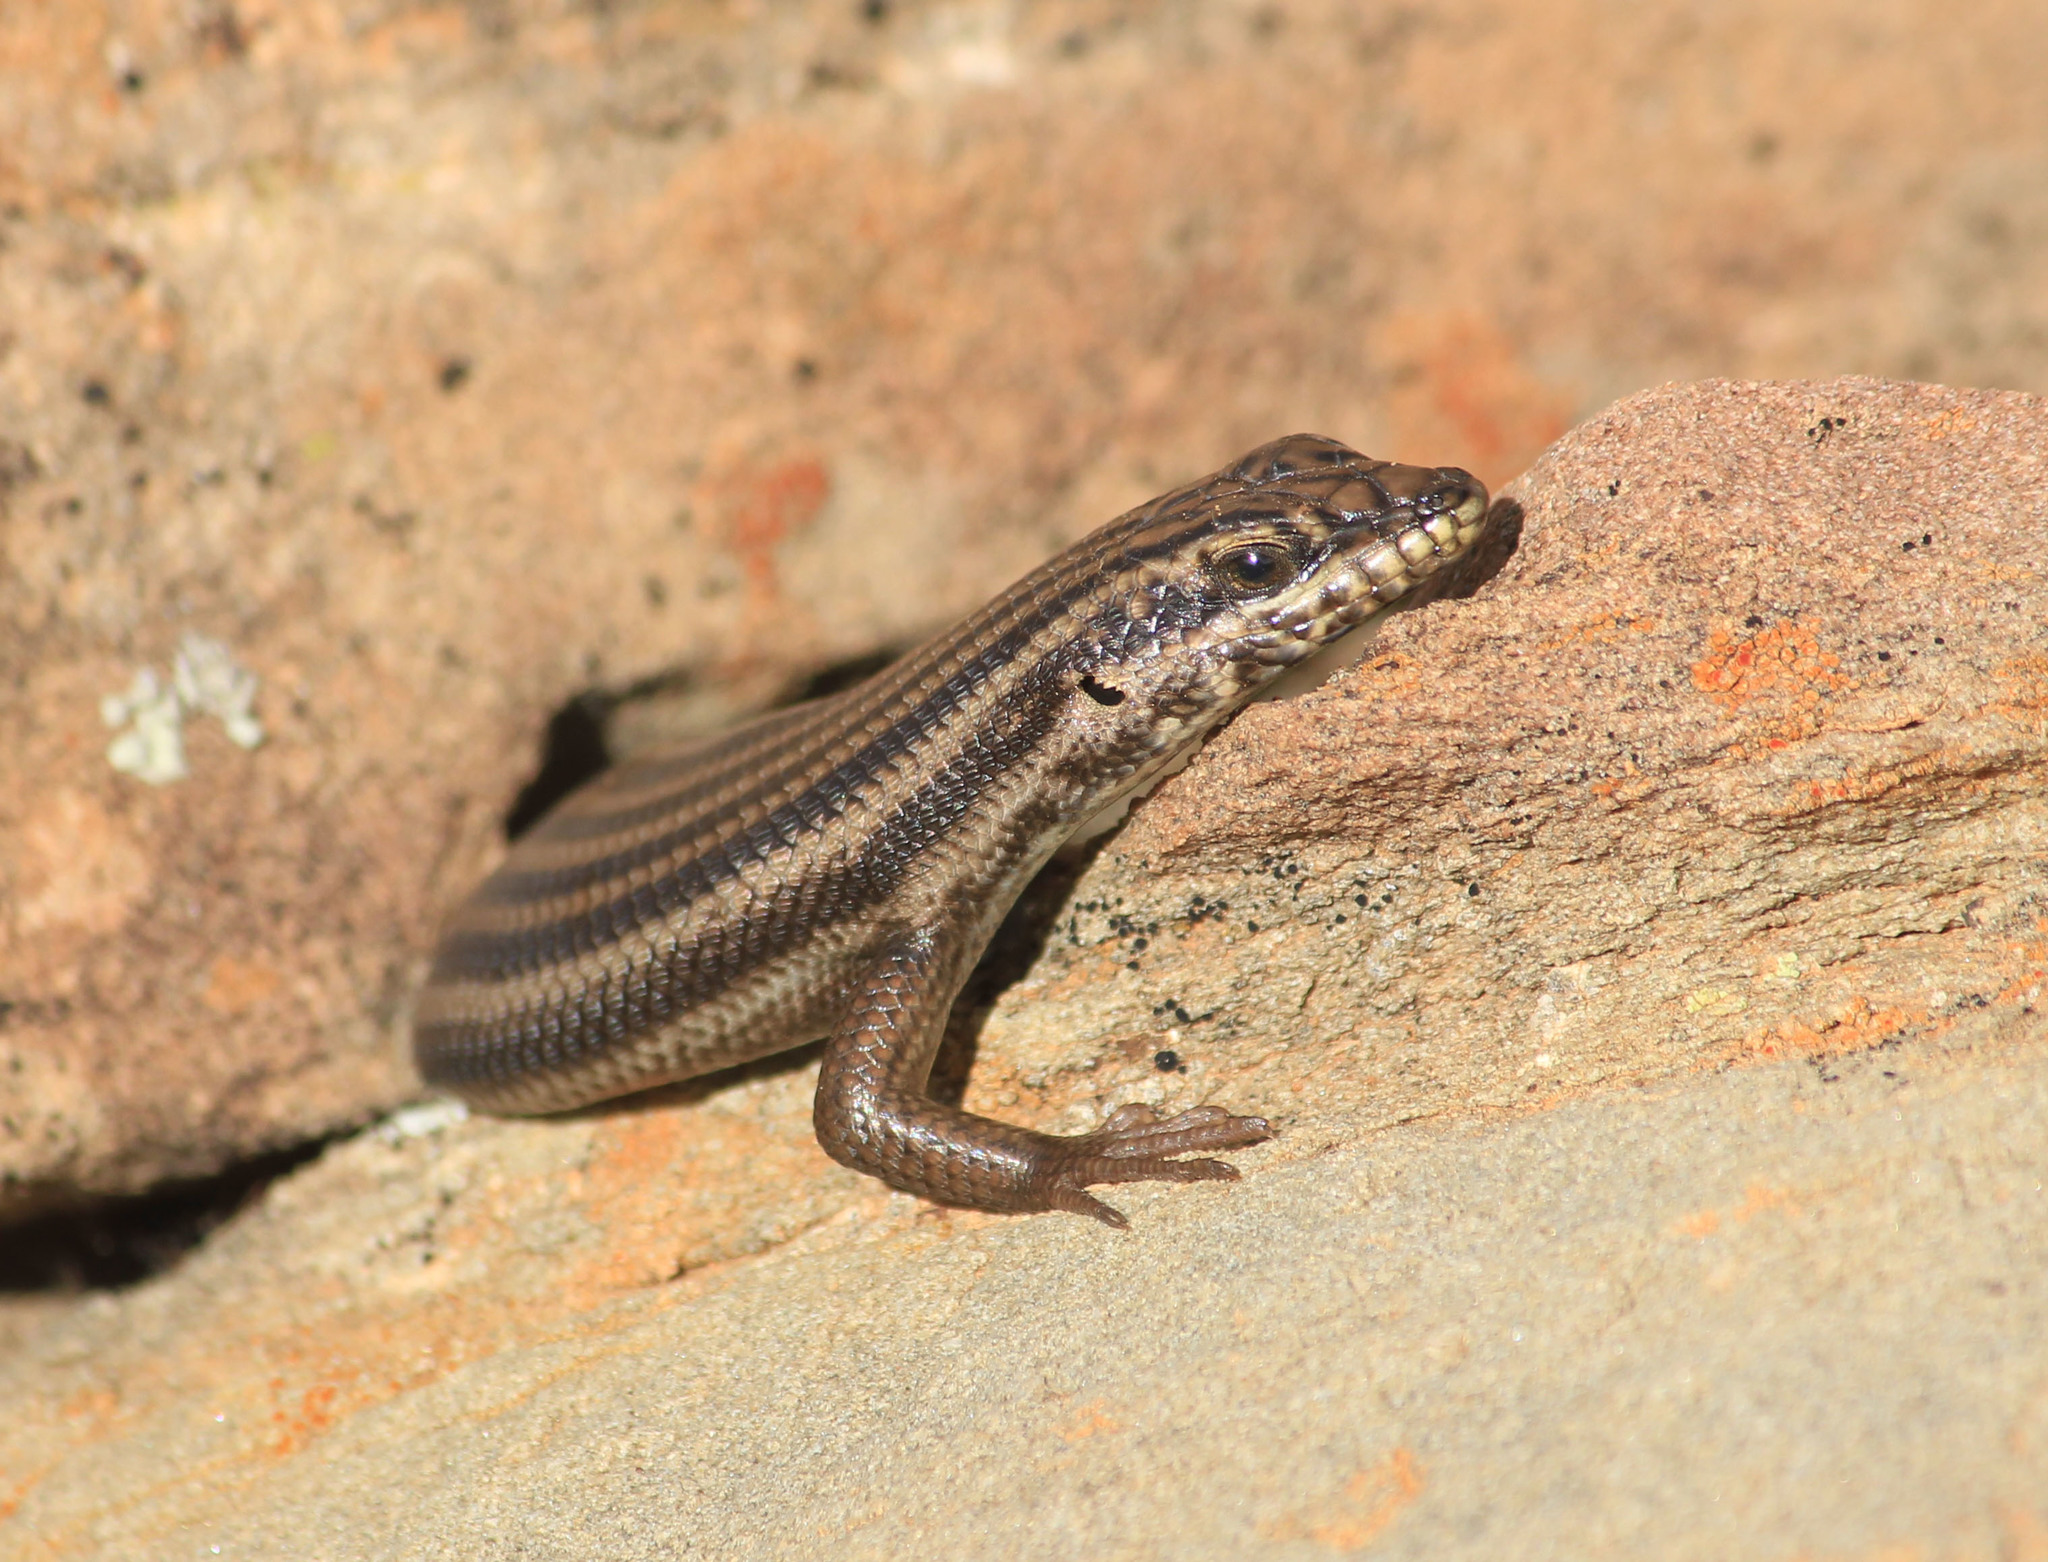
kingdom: Animalia
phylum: Chordata
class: Squamata
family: Scincidae
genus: Trachylepis
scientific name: Trachylepis sulcata
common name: Western rock skink
